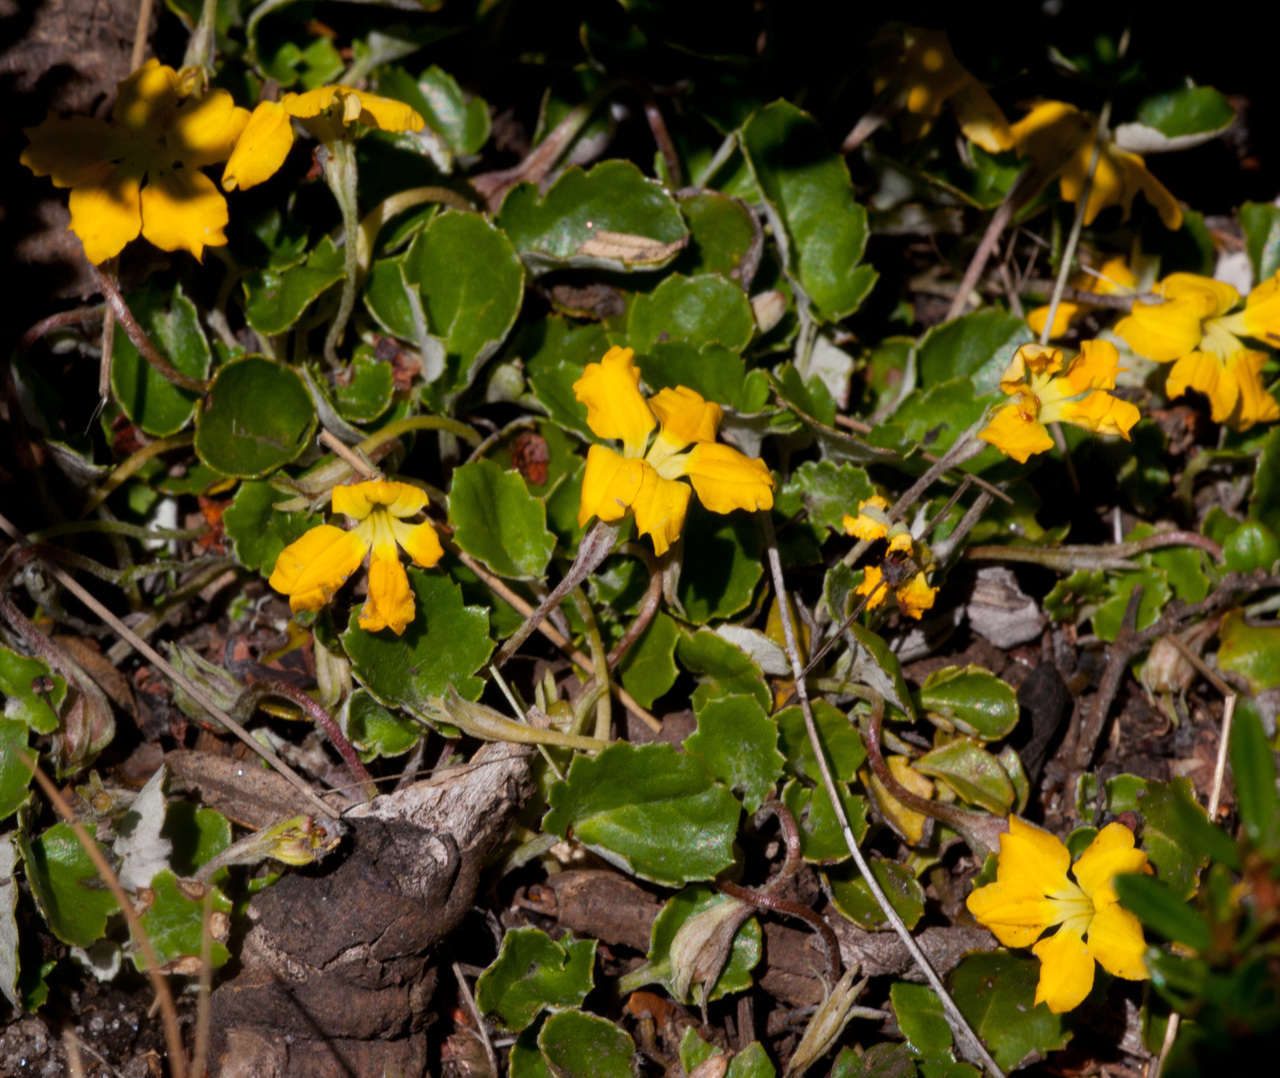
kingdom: Plantae
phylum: Tracheophyta
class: Magnoliopsida
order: Asterales
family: Goodeniaceae
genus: Goodenia
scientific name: Goodenia hederacea
